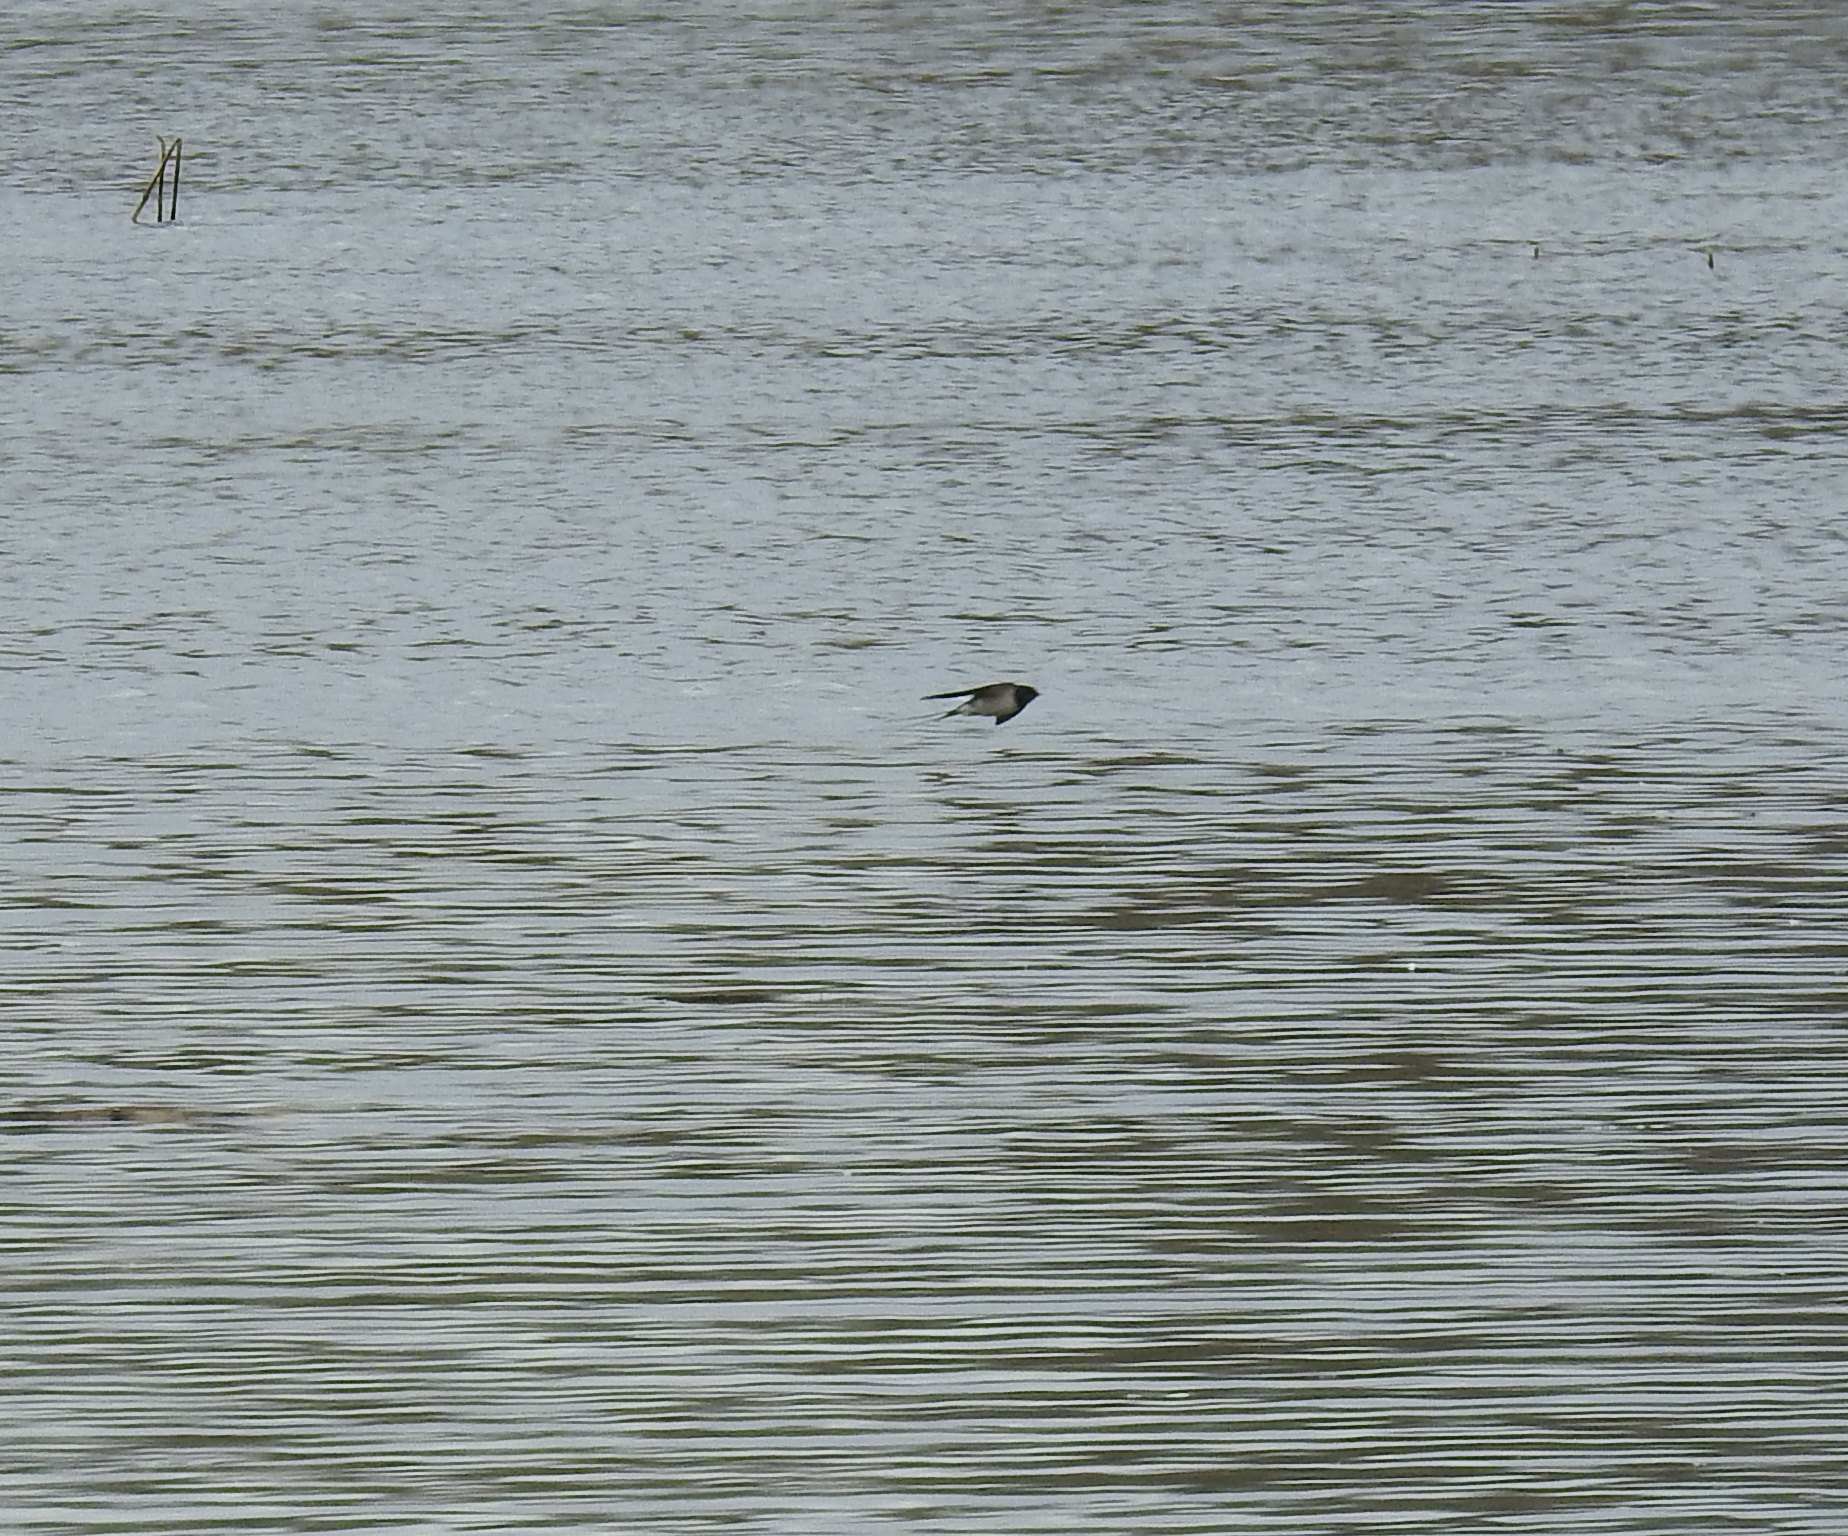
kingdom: Animalia
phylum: Chordata
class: Aves
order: Passeriformes
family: Hirundinidae
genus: Hirundo
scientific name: Hirundo rustica
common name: Barn swallow
